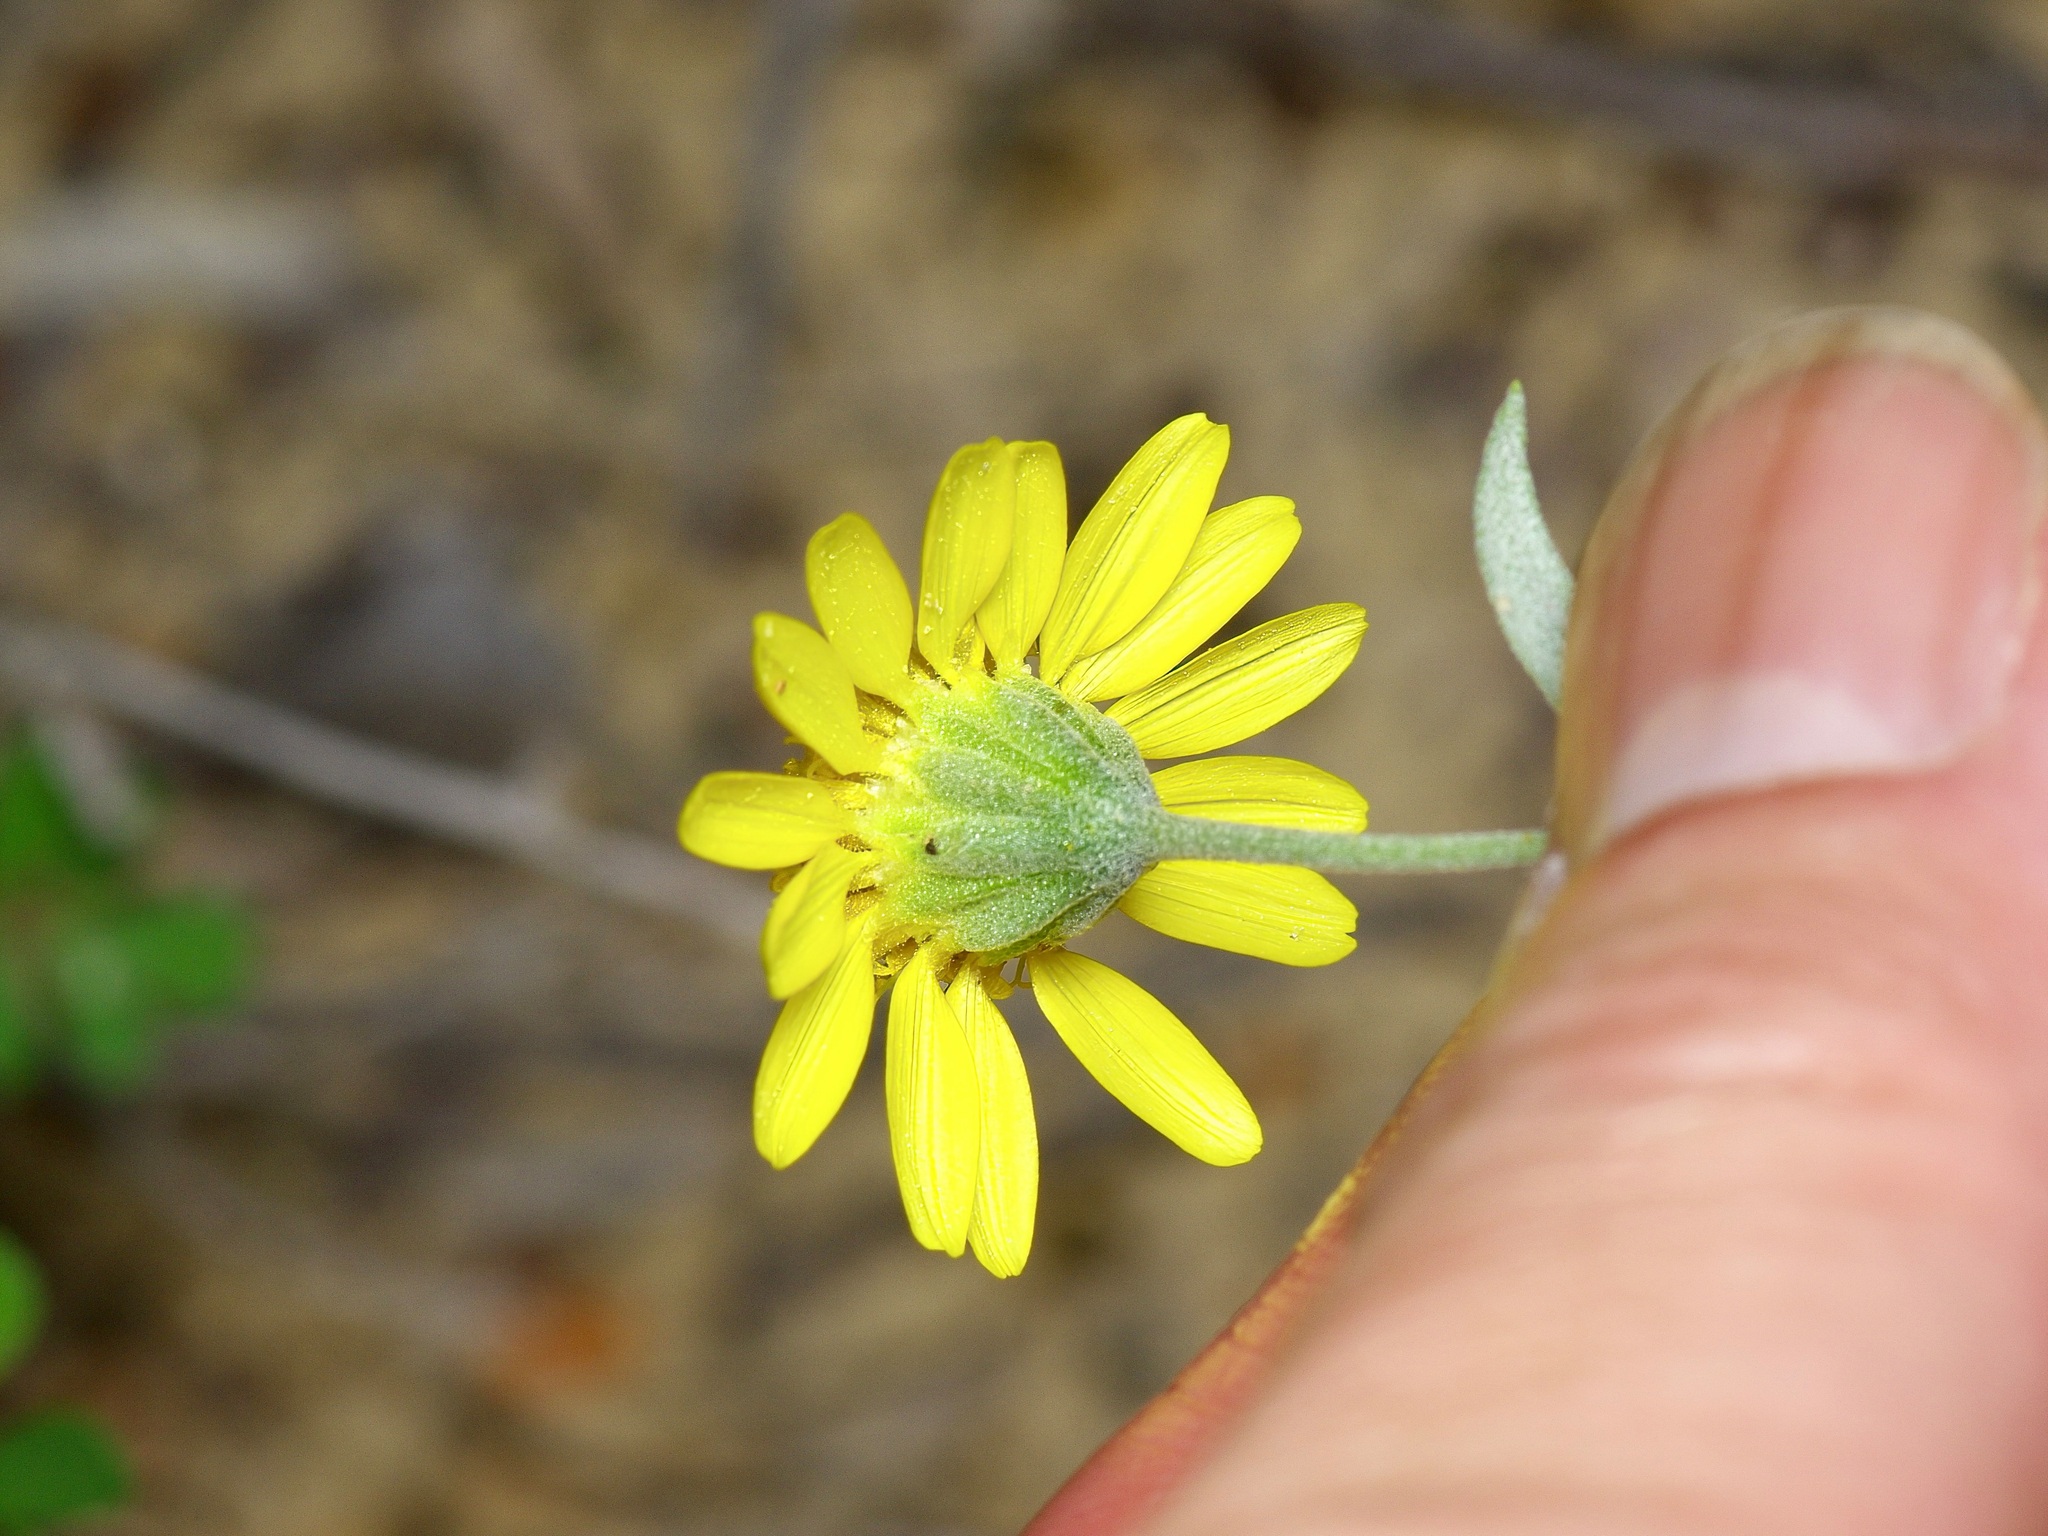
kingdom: Plantae
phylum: Tracheophyta
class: Magnoliopsida
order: Asterales
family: Asteraceae
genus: Picradeniopsis
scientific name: Picradeniopsis absinthifolia
